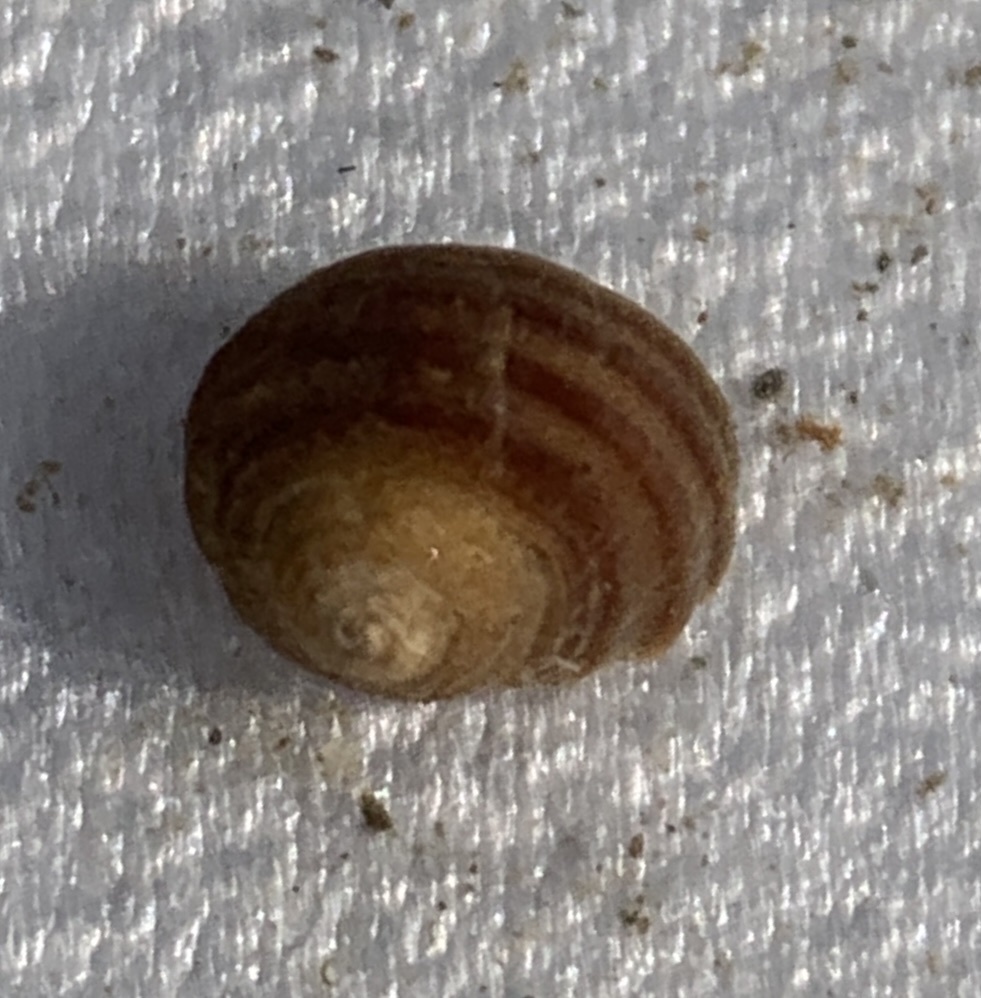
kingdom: Animalia
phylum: Mollusca
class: Gastropoda
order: Littorinimorpha
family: Littorinidae
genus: Littorina
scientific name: Littorina littorea
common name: Common periwinkle
